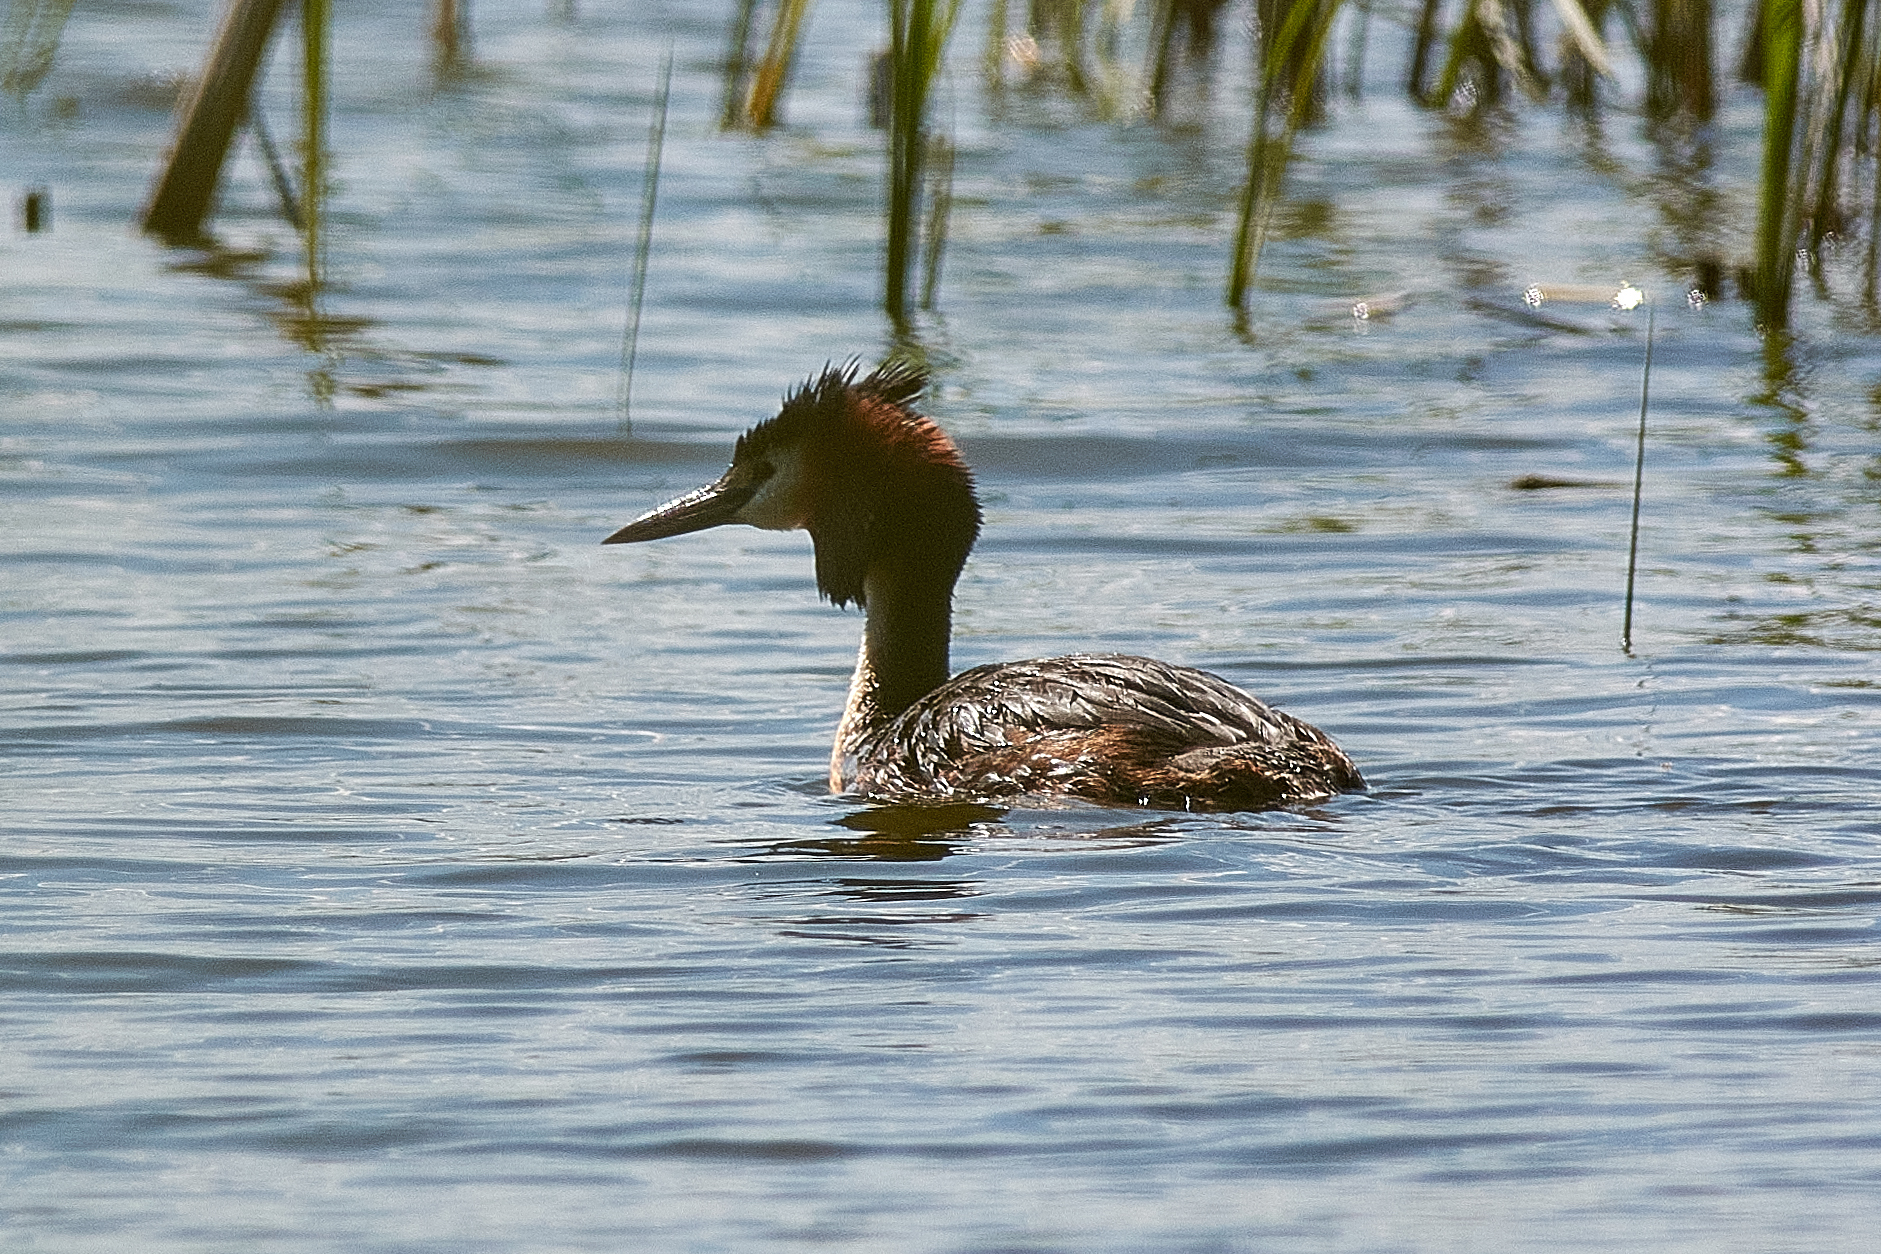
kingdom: Animalia
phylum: Chordata
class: Aves
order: Podicipediformes
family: Podicipedidae
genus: Podiceps
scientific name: Podiceps cristatus
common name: Great crested grebe
